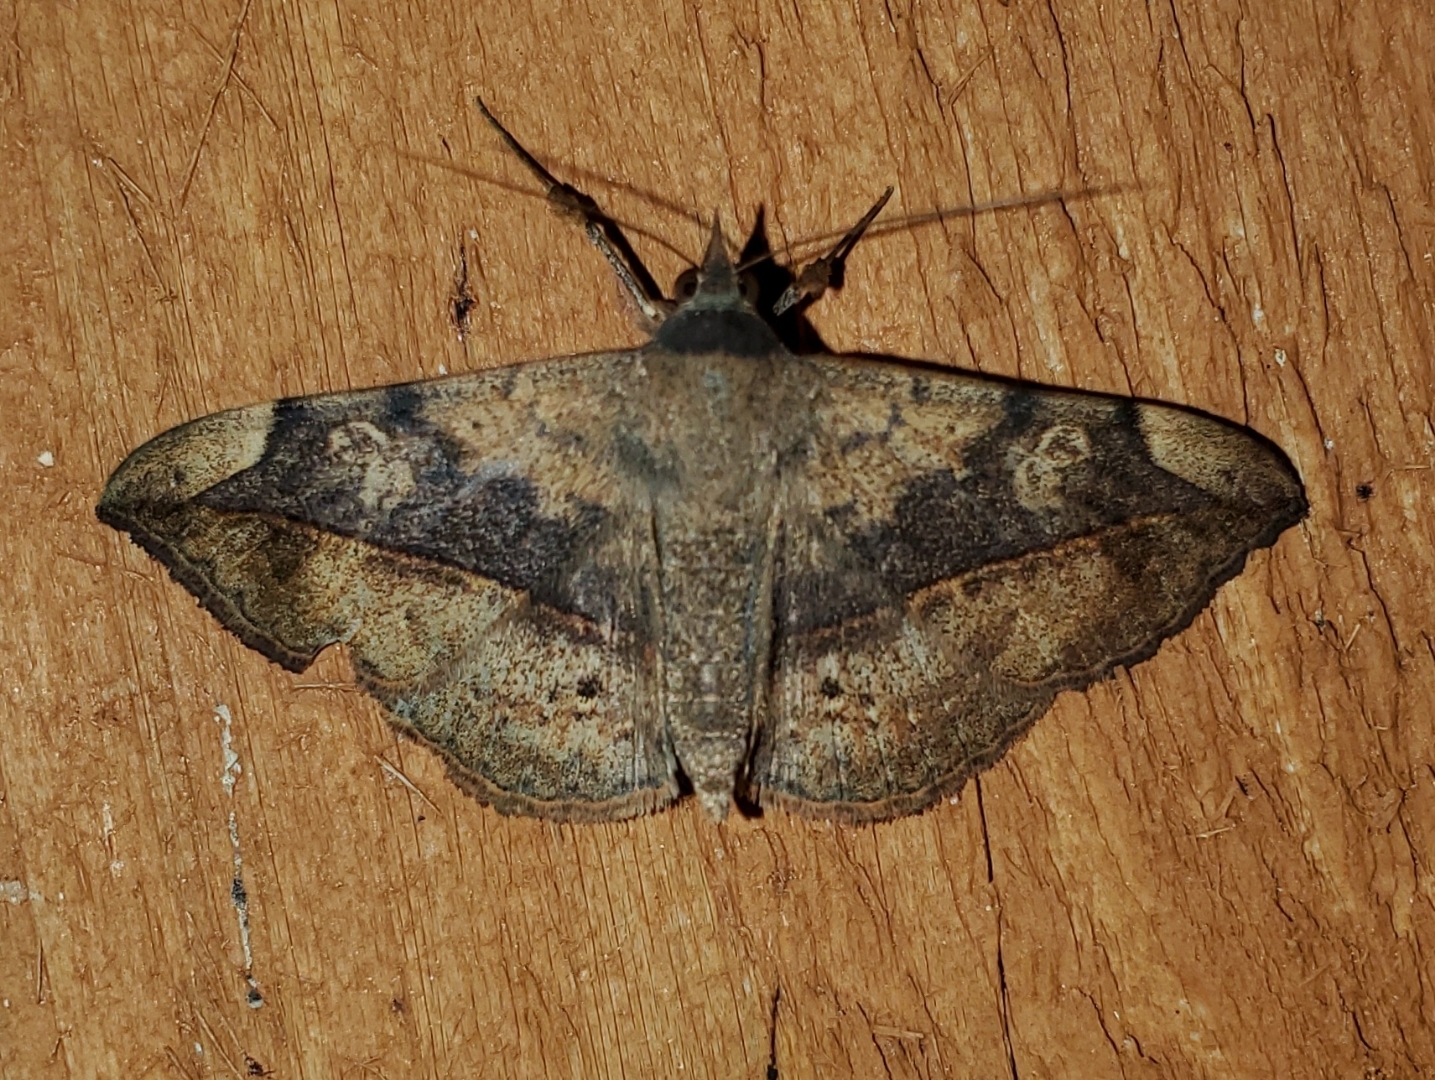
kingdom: Animalia
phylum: Arthropoda
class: Insecta
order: Lepidoptera
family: Erebidae
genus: Anticarsia
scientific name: Anticarsia gemmatalis
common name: Cutworm moth
